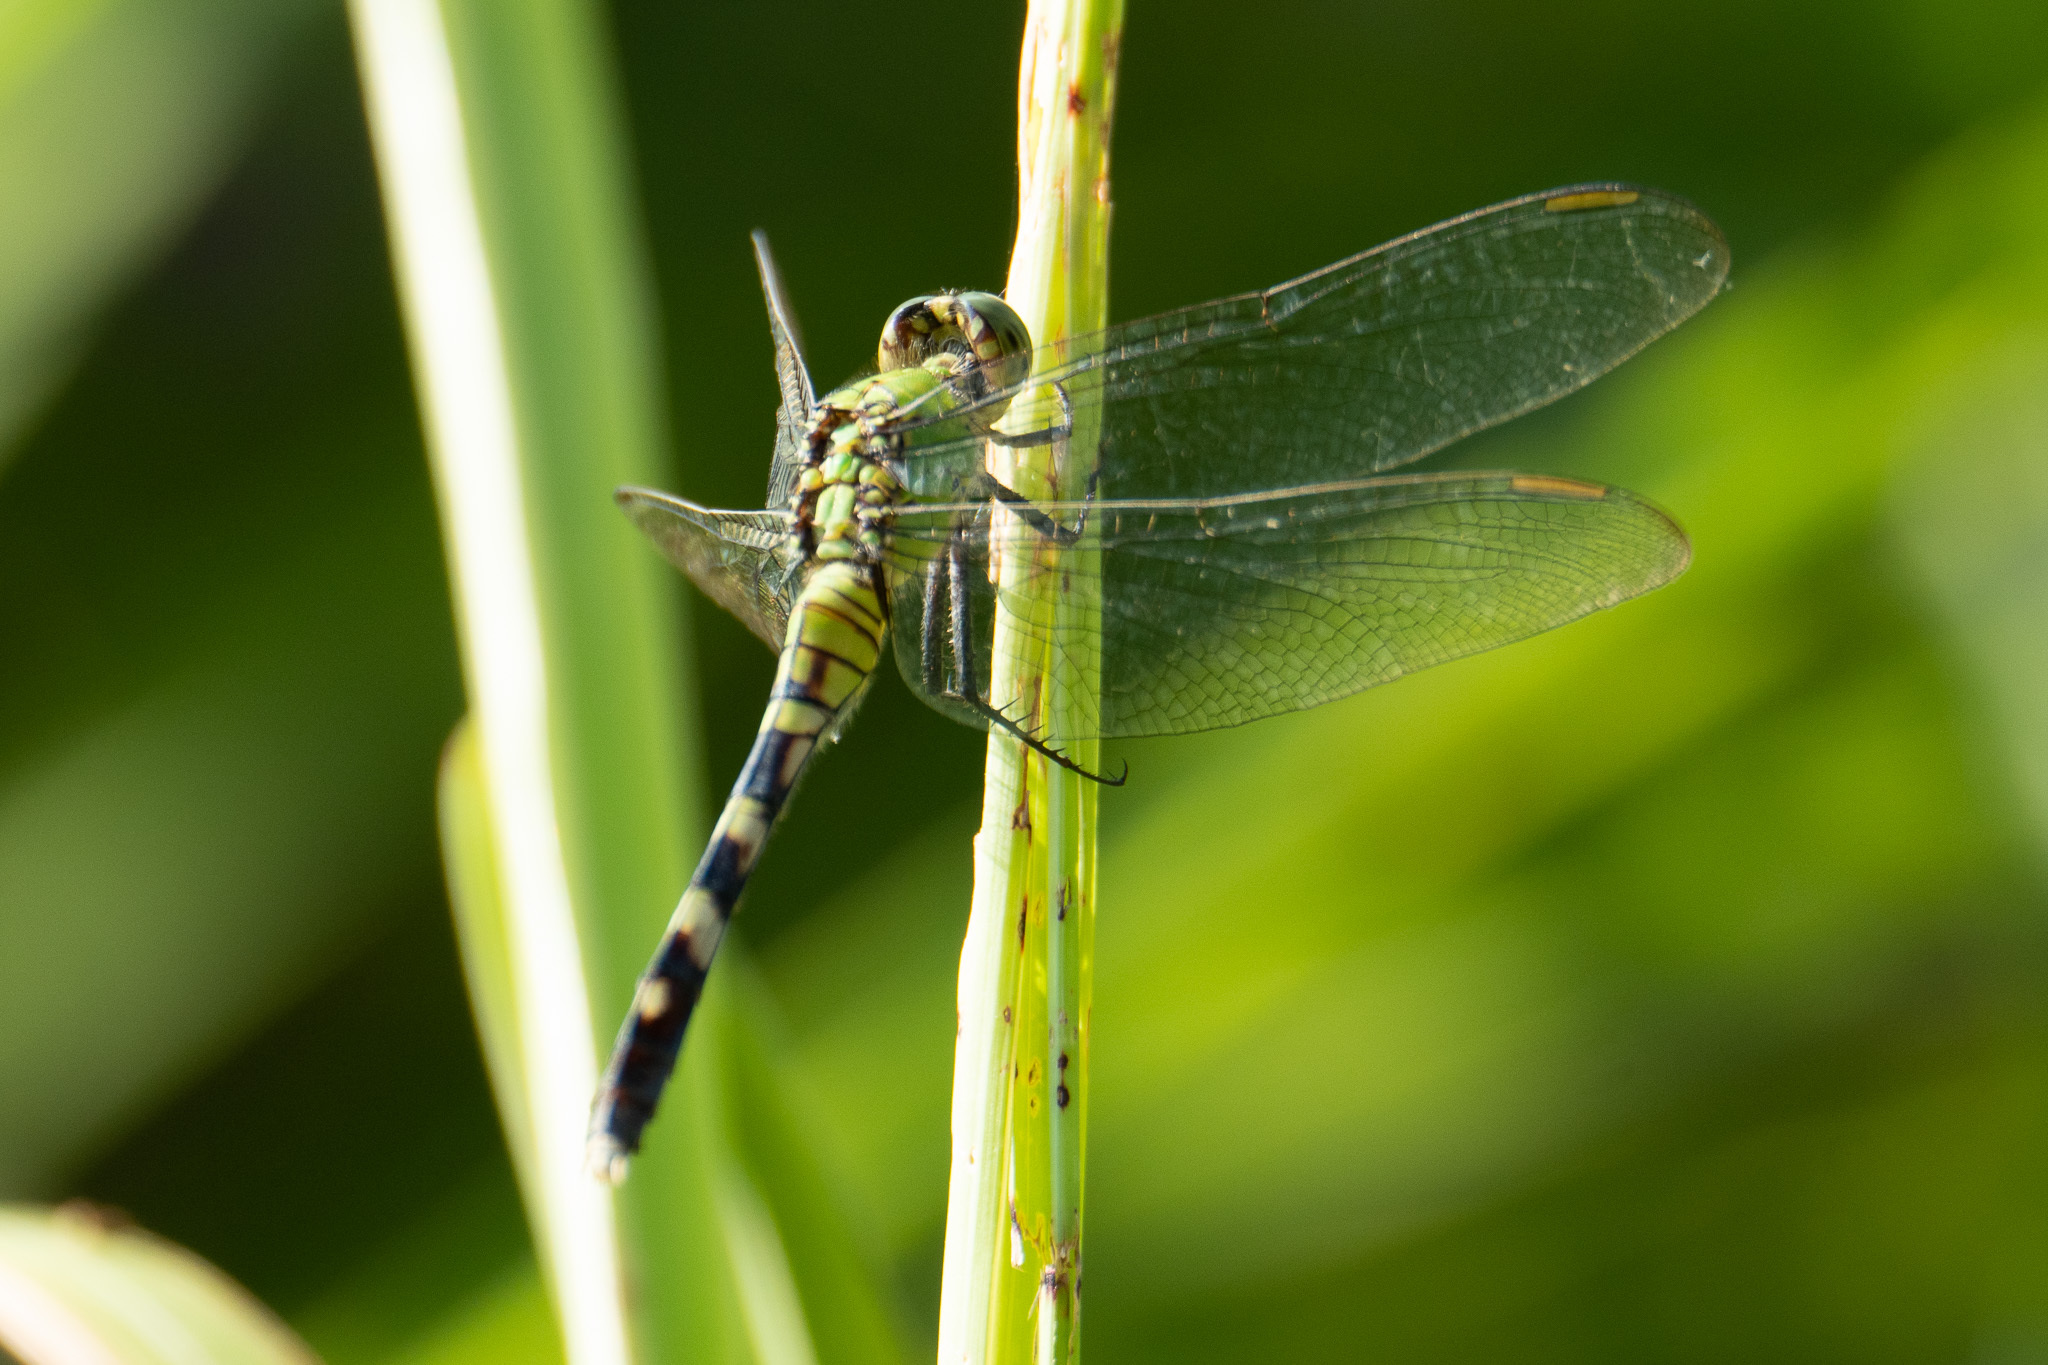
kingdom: Animalia
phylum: Arthropoda
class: Insecta
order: Odonata
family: Libellulidae
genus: Erythemis
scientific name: Erythemis simplicicollis
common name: Eastern pondhawk
